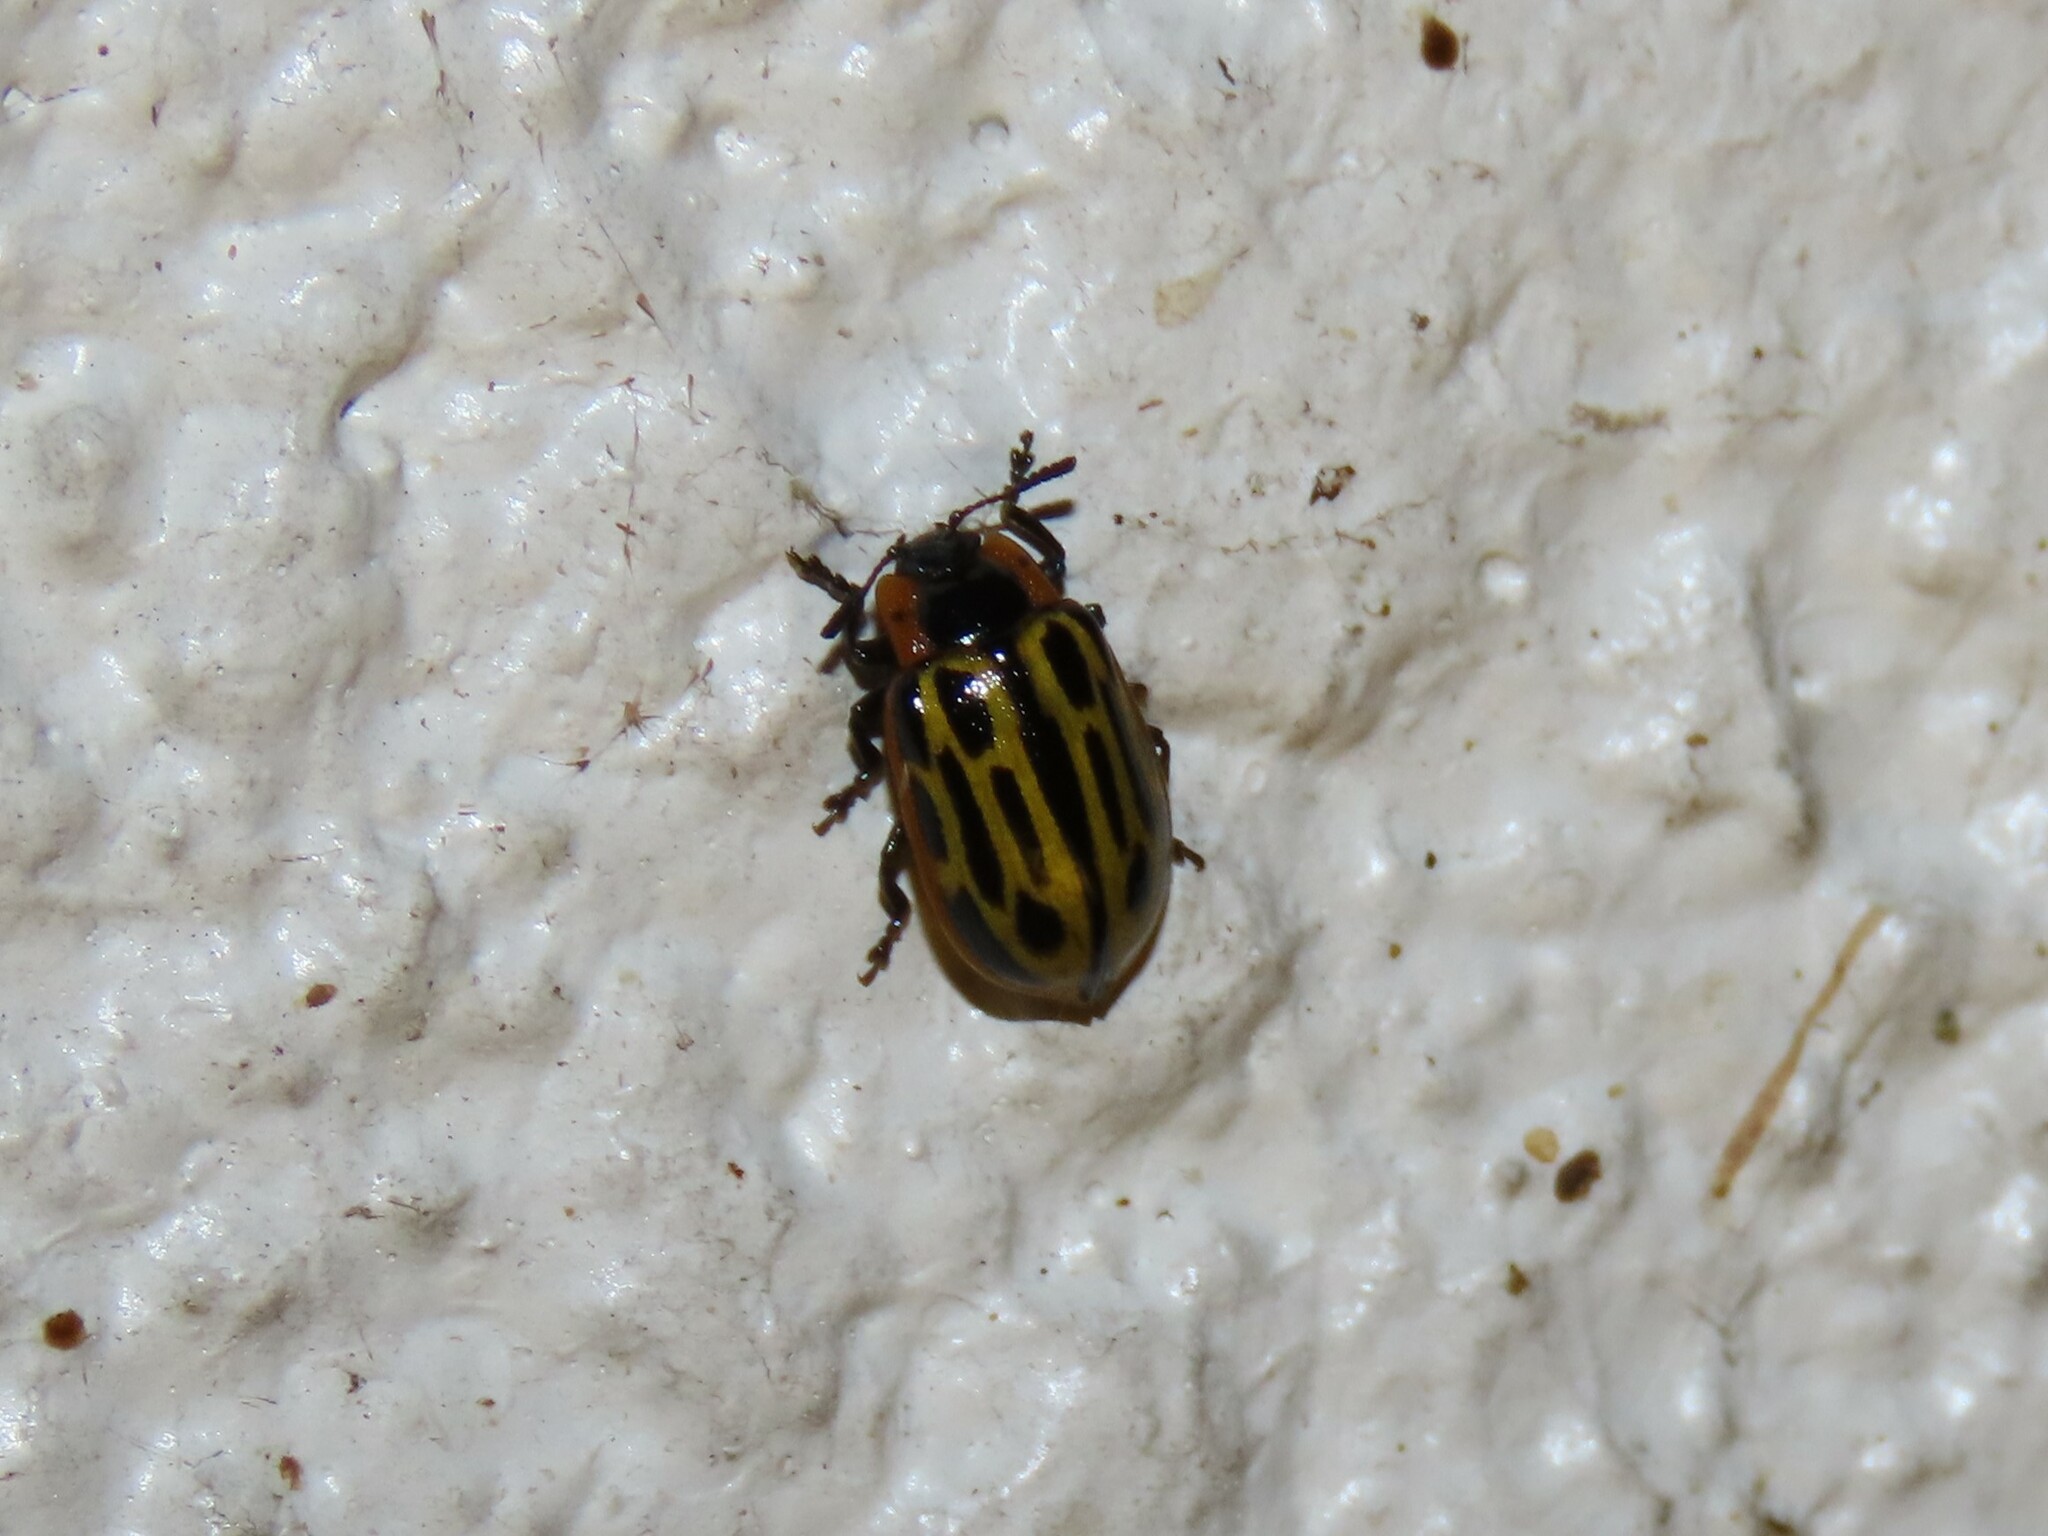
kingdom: Animalia
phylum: Arthropoda
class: Insecta
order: Coleoptera
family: Chrysomelidae
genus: Aethiopocassis
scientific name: Aethiopocassis scripta
